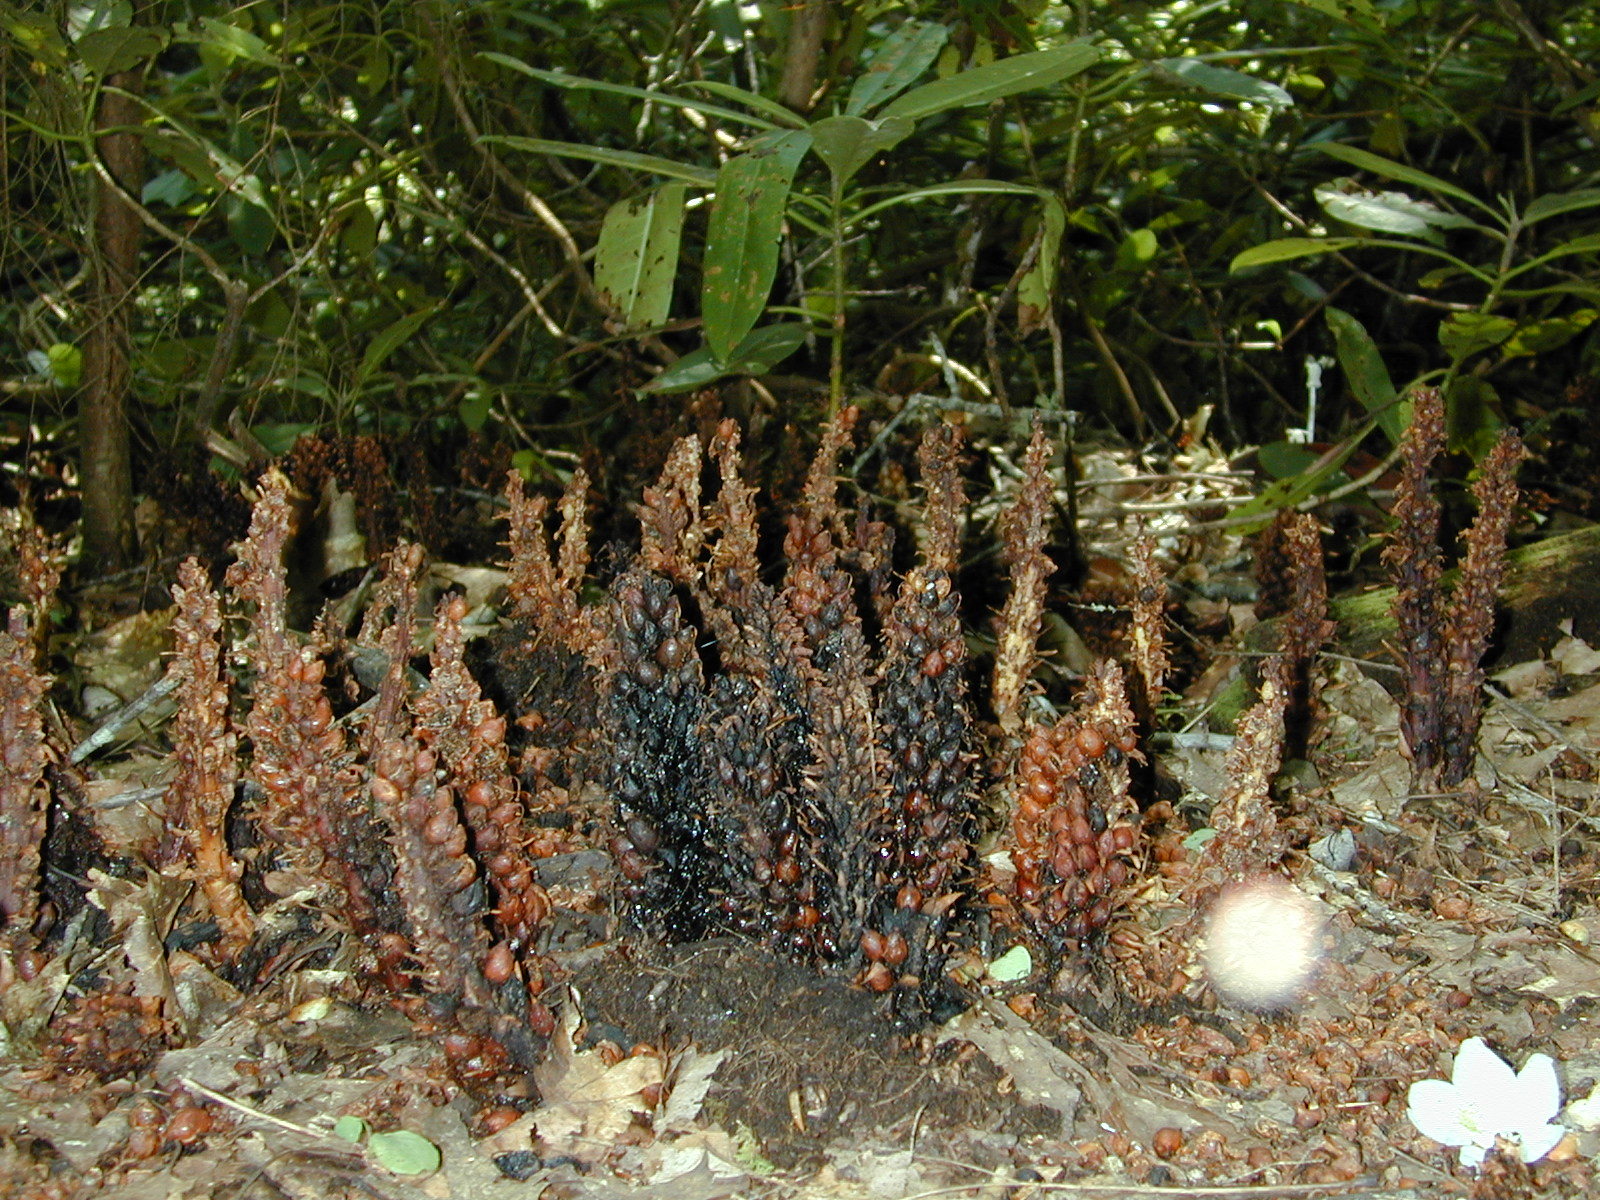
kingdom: Plantae
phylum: Tracheophyta
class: Magnoliopsida
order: Lamiales
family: Orobanchaceae
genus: Conopholis
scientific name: Conopholis americana
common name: American cancer-root
